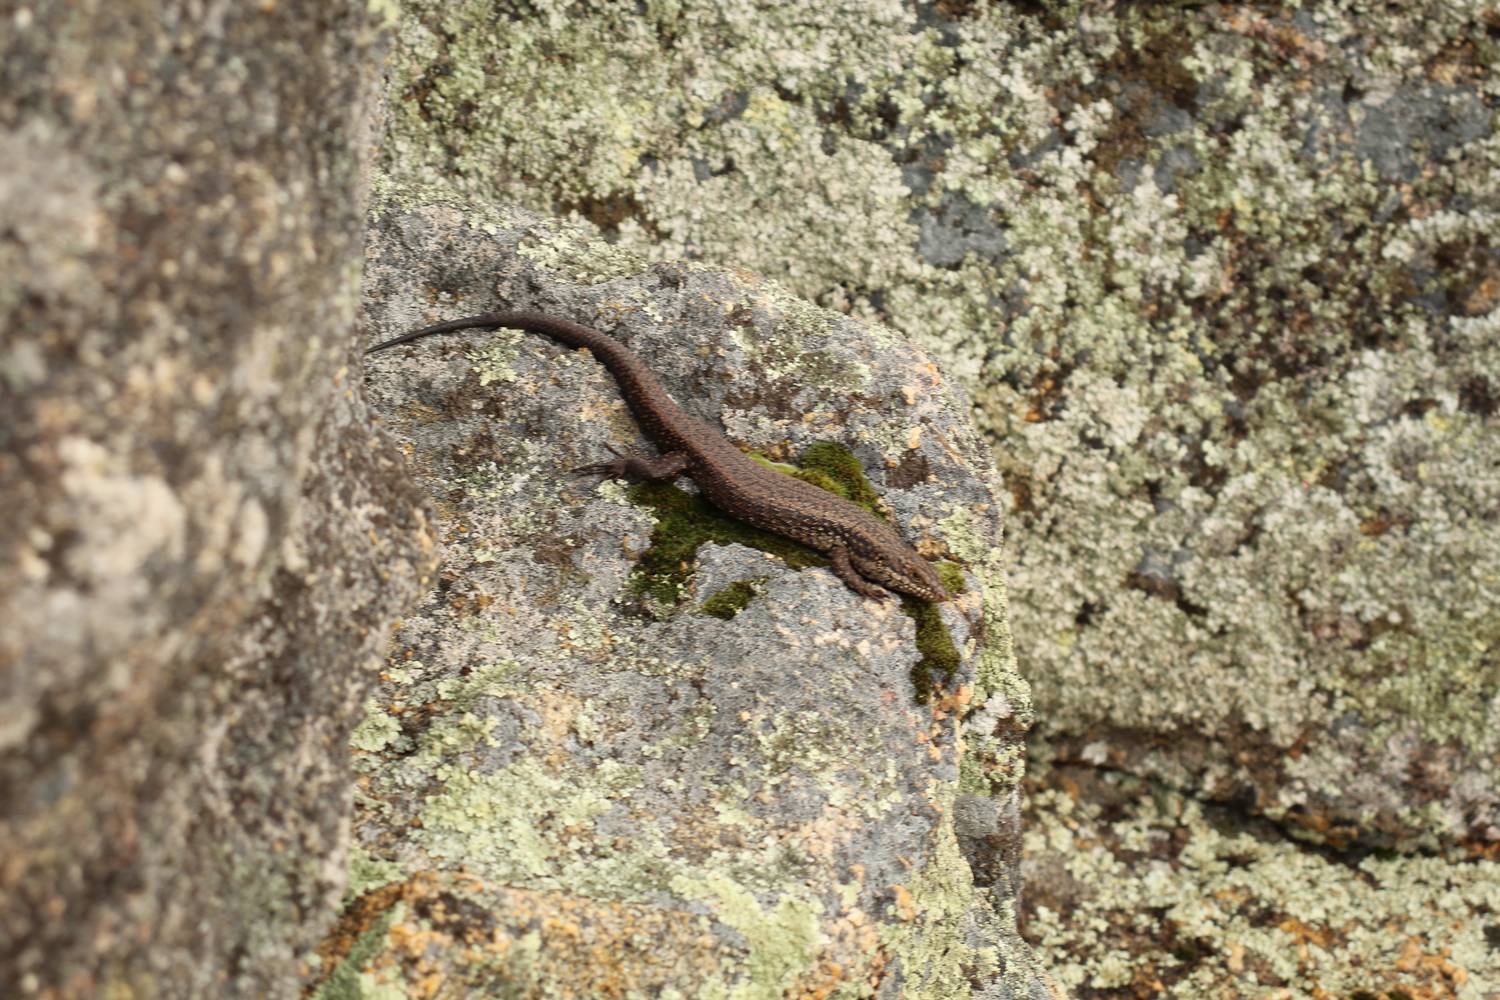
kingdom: Animalia
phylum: Chordata
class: Squamata
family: Scincidae
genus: Egernia
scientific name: Egernia napoleonis
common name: South-western crevice skink
